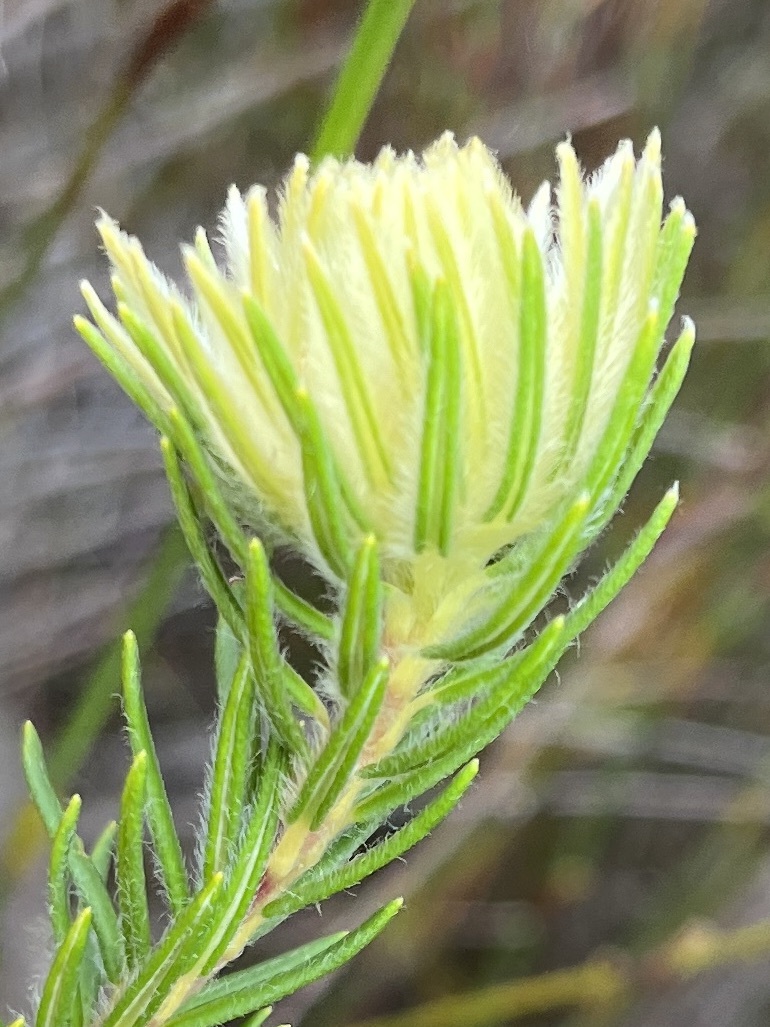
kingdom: Plantae
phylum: Tracheophyta
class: Magnoliopsida
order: Rosales
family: Rhamnaceae
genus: Phylica
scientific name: Phylica pubescens
